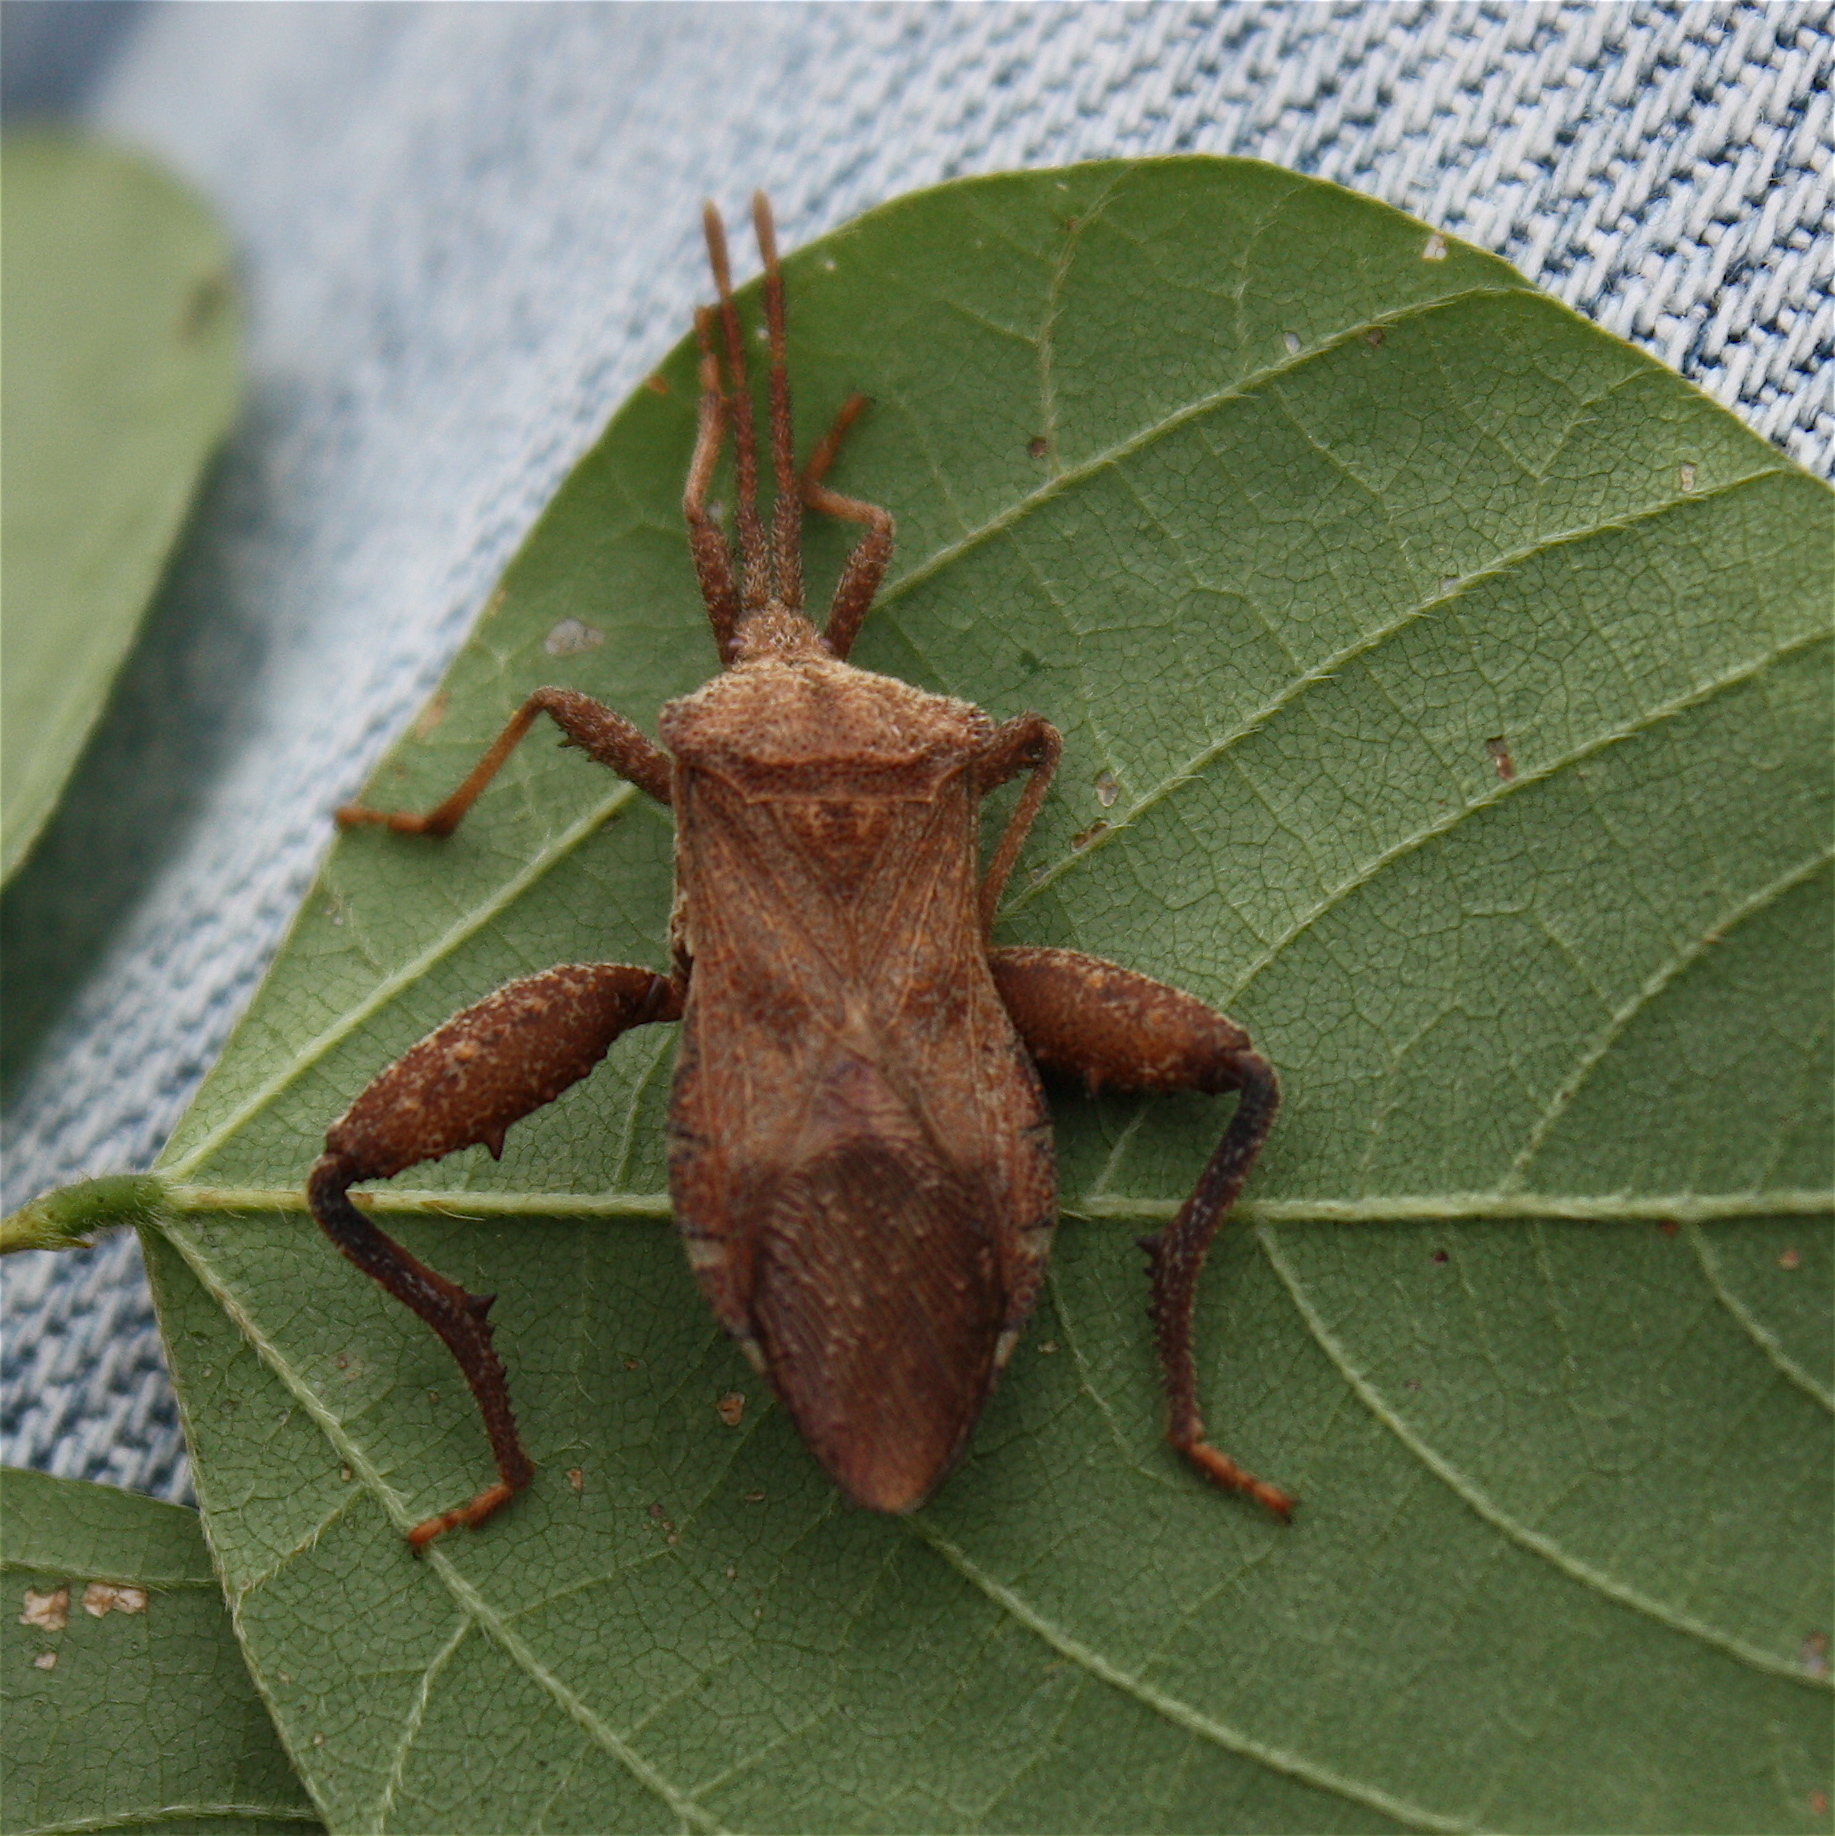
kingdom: Animalia
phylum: Arthropoda
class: Insecta
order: Hemiptera
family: Coreidae
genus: Piezogaster
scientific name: Piezogaster calcarator
